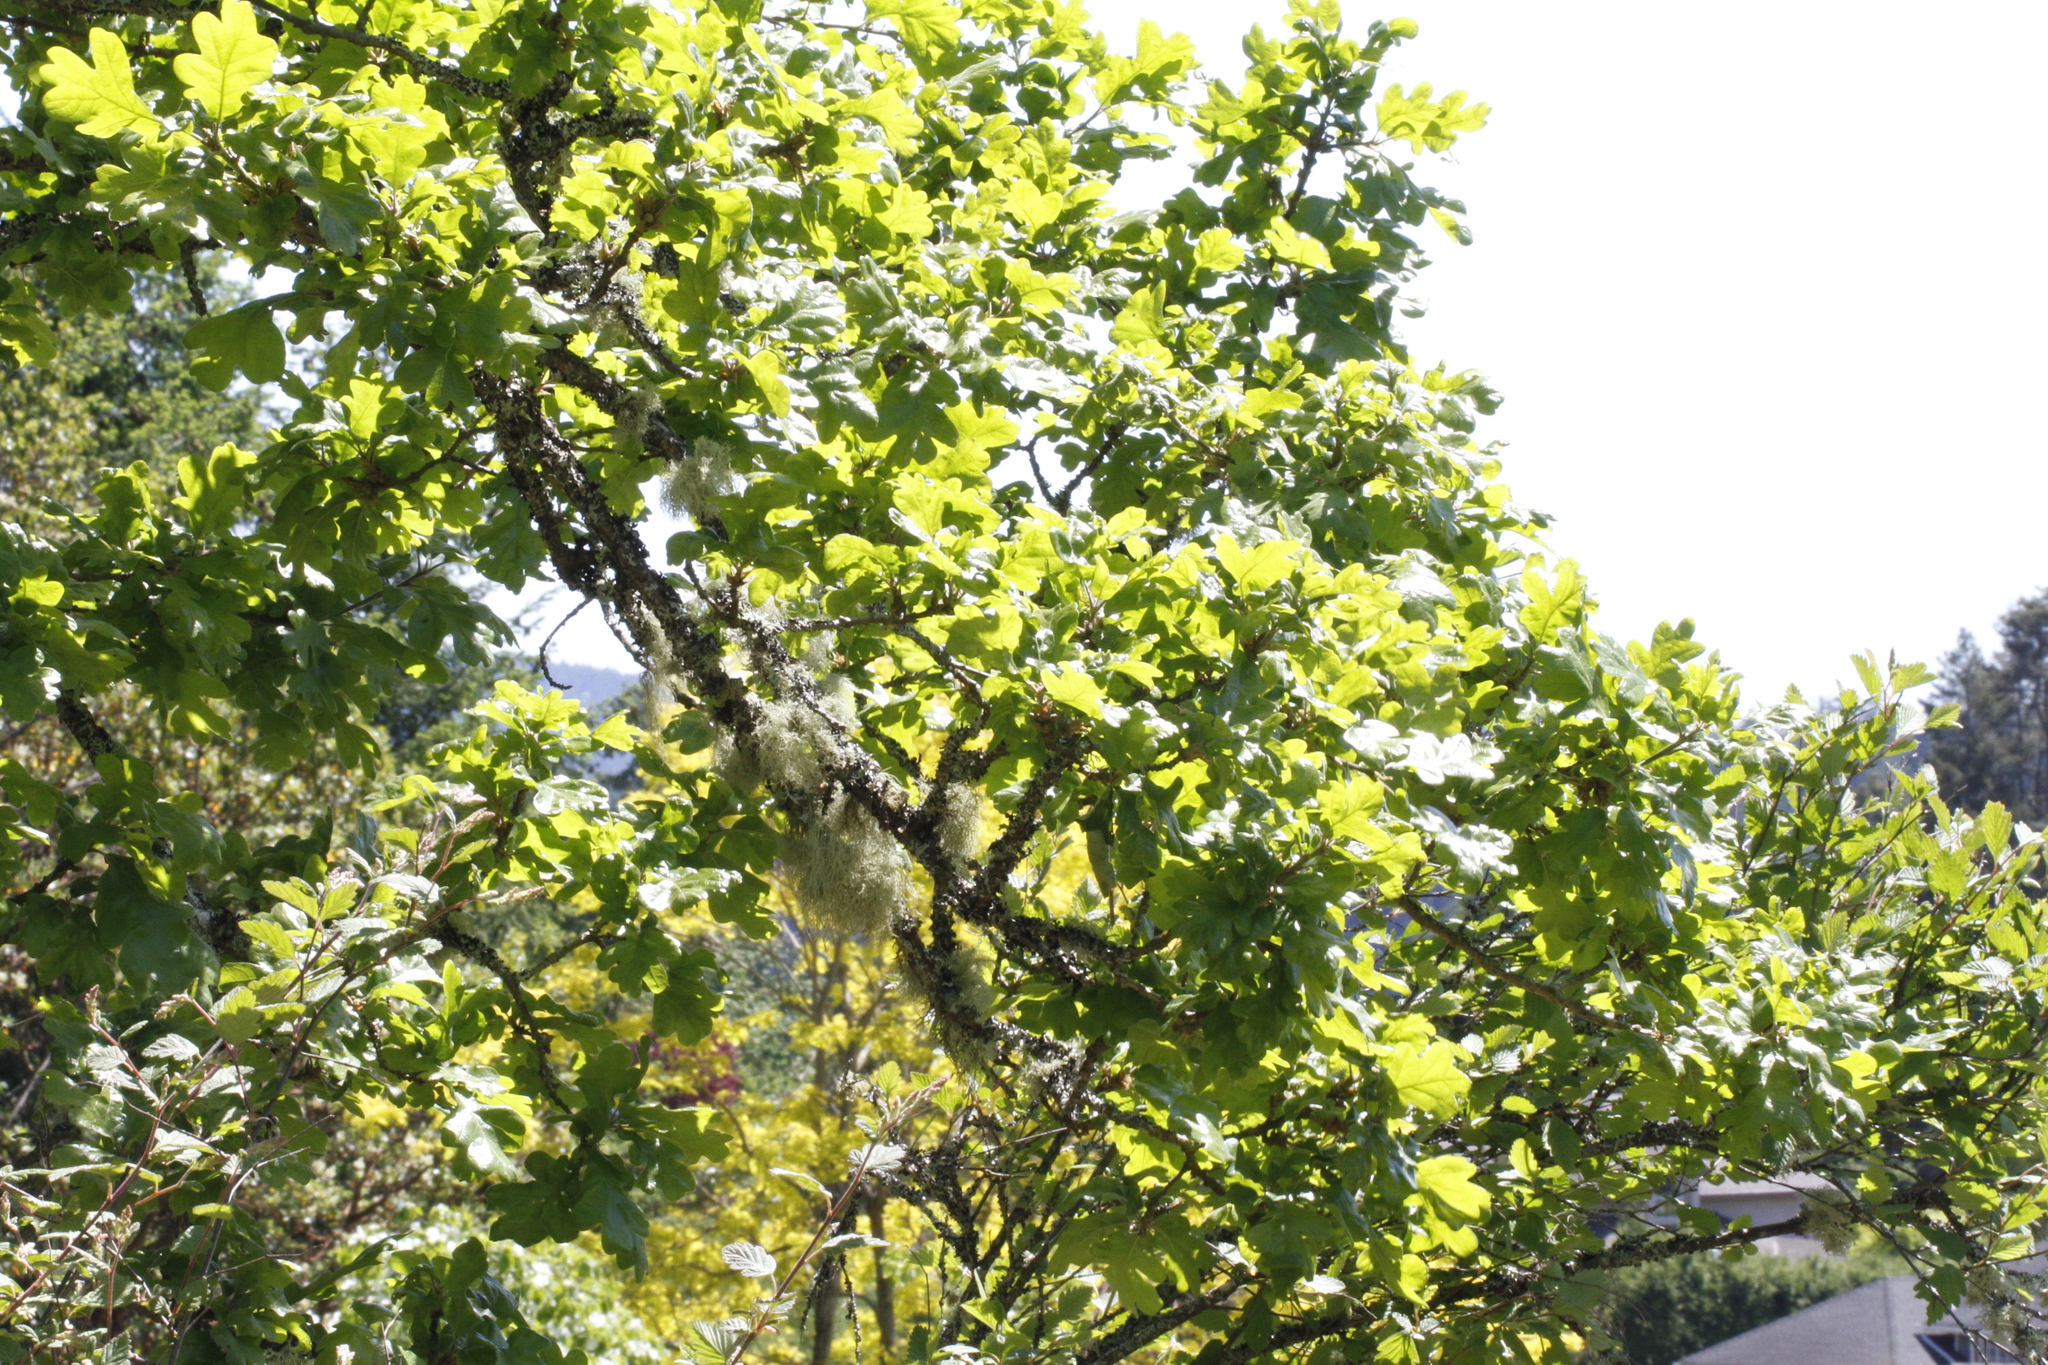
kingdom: Plantae
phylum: Tracheophyta
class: Magnoliopsida
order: Fagales
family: Fagaceae
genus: Quercus
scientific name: Quercus garryana
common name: Garry oak
